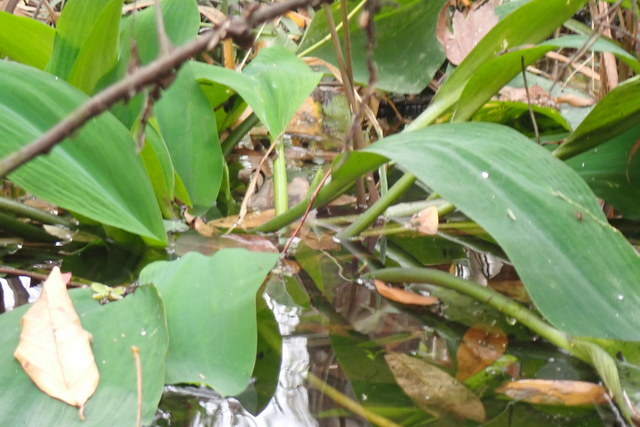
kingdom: Plantae
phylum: Tracheophyta
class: Liliopsida
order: Alismatales
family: Araceae
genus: Orontium
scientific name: Orontium aquaticum
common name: Golden-club
